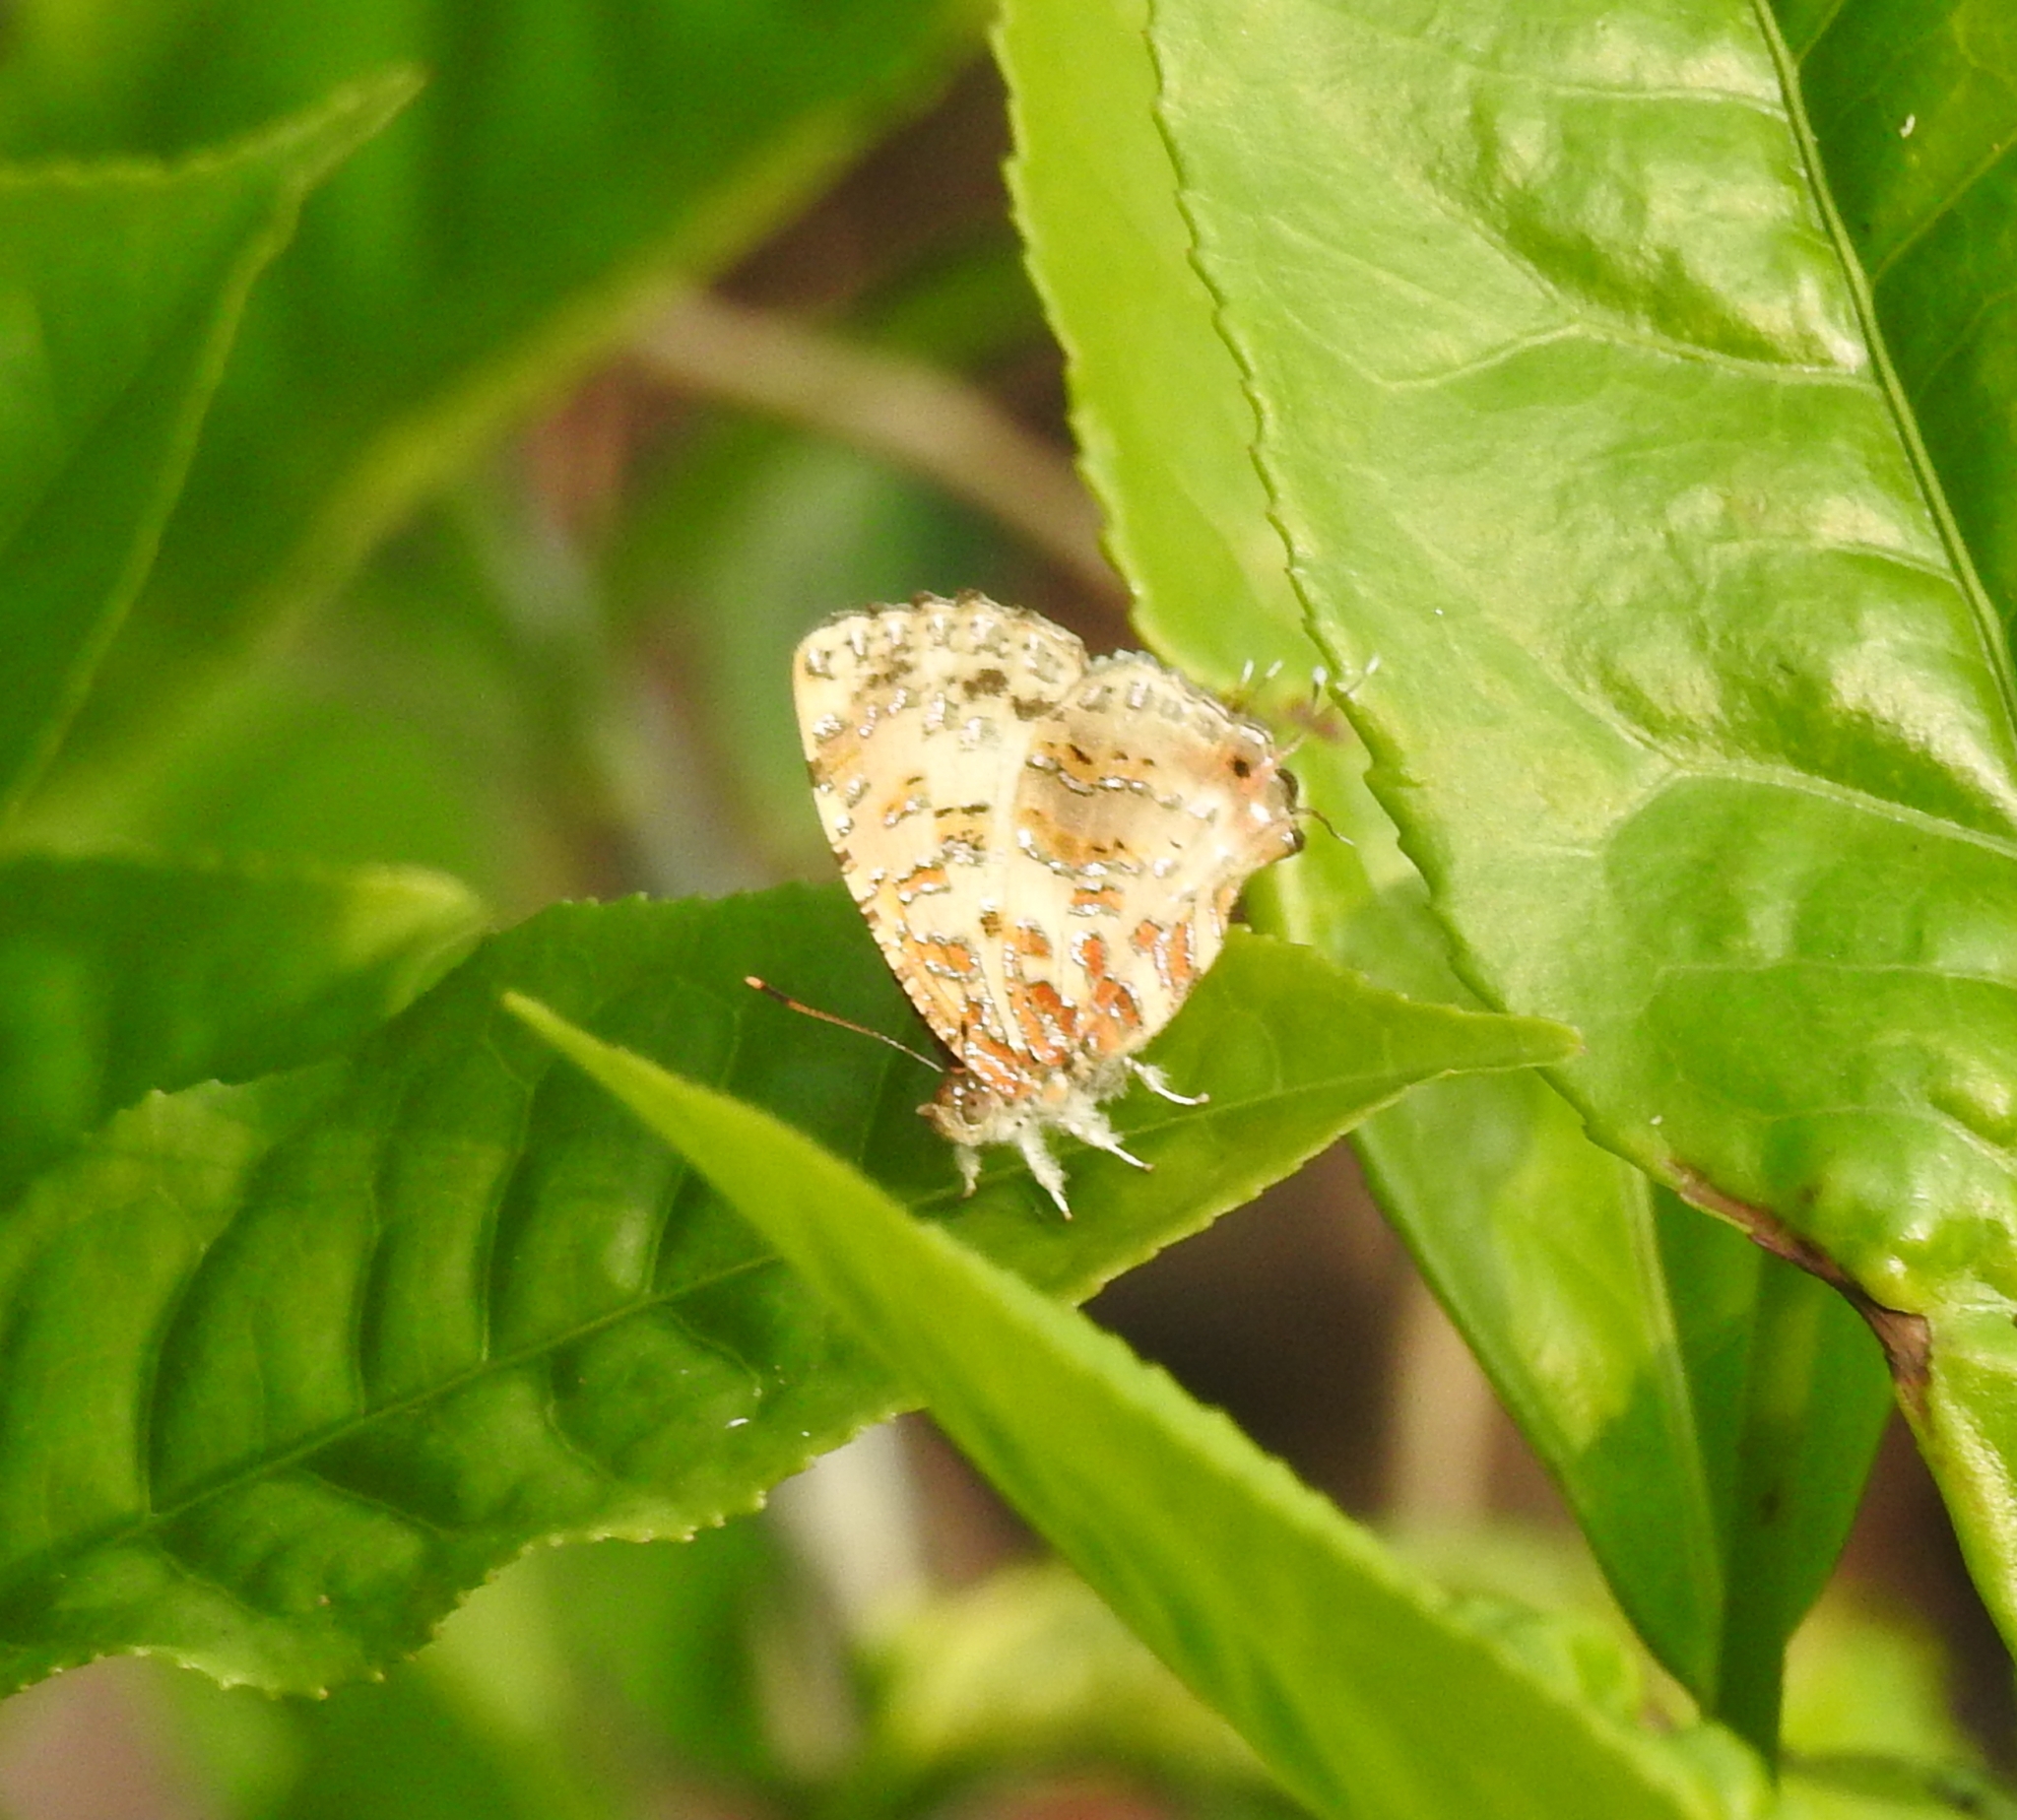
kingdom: Animalia
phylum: Arthropoda
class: Insecta
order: Lepidoptera
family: Lycaenidae
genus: Catapaecilma
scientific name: Catapaecilma major
